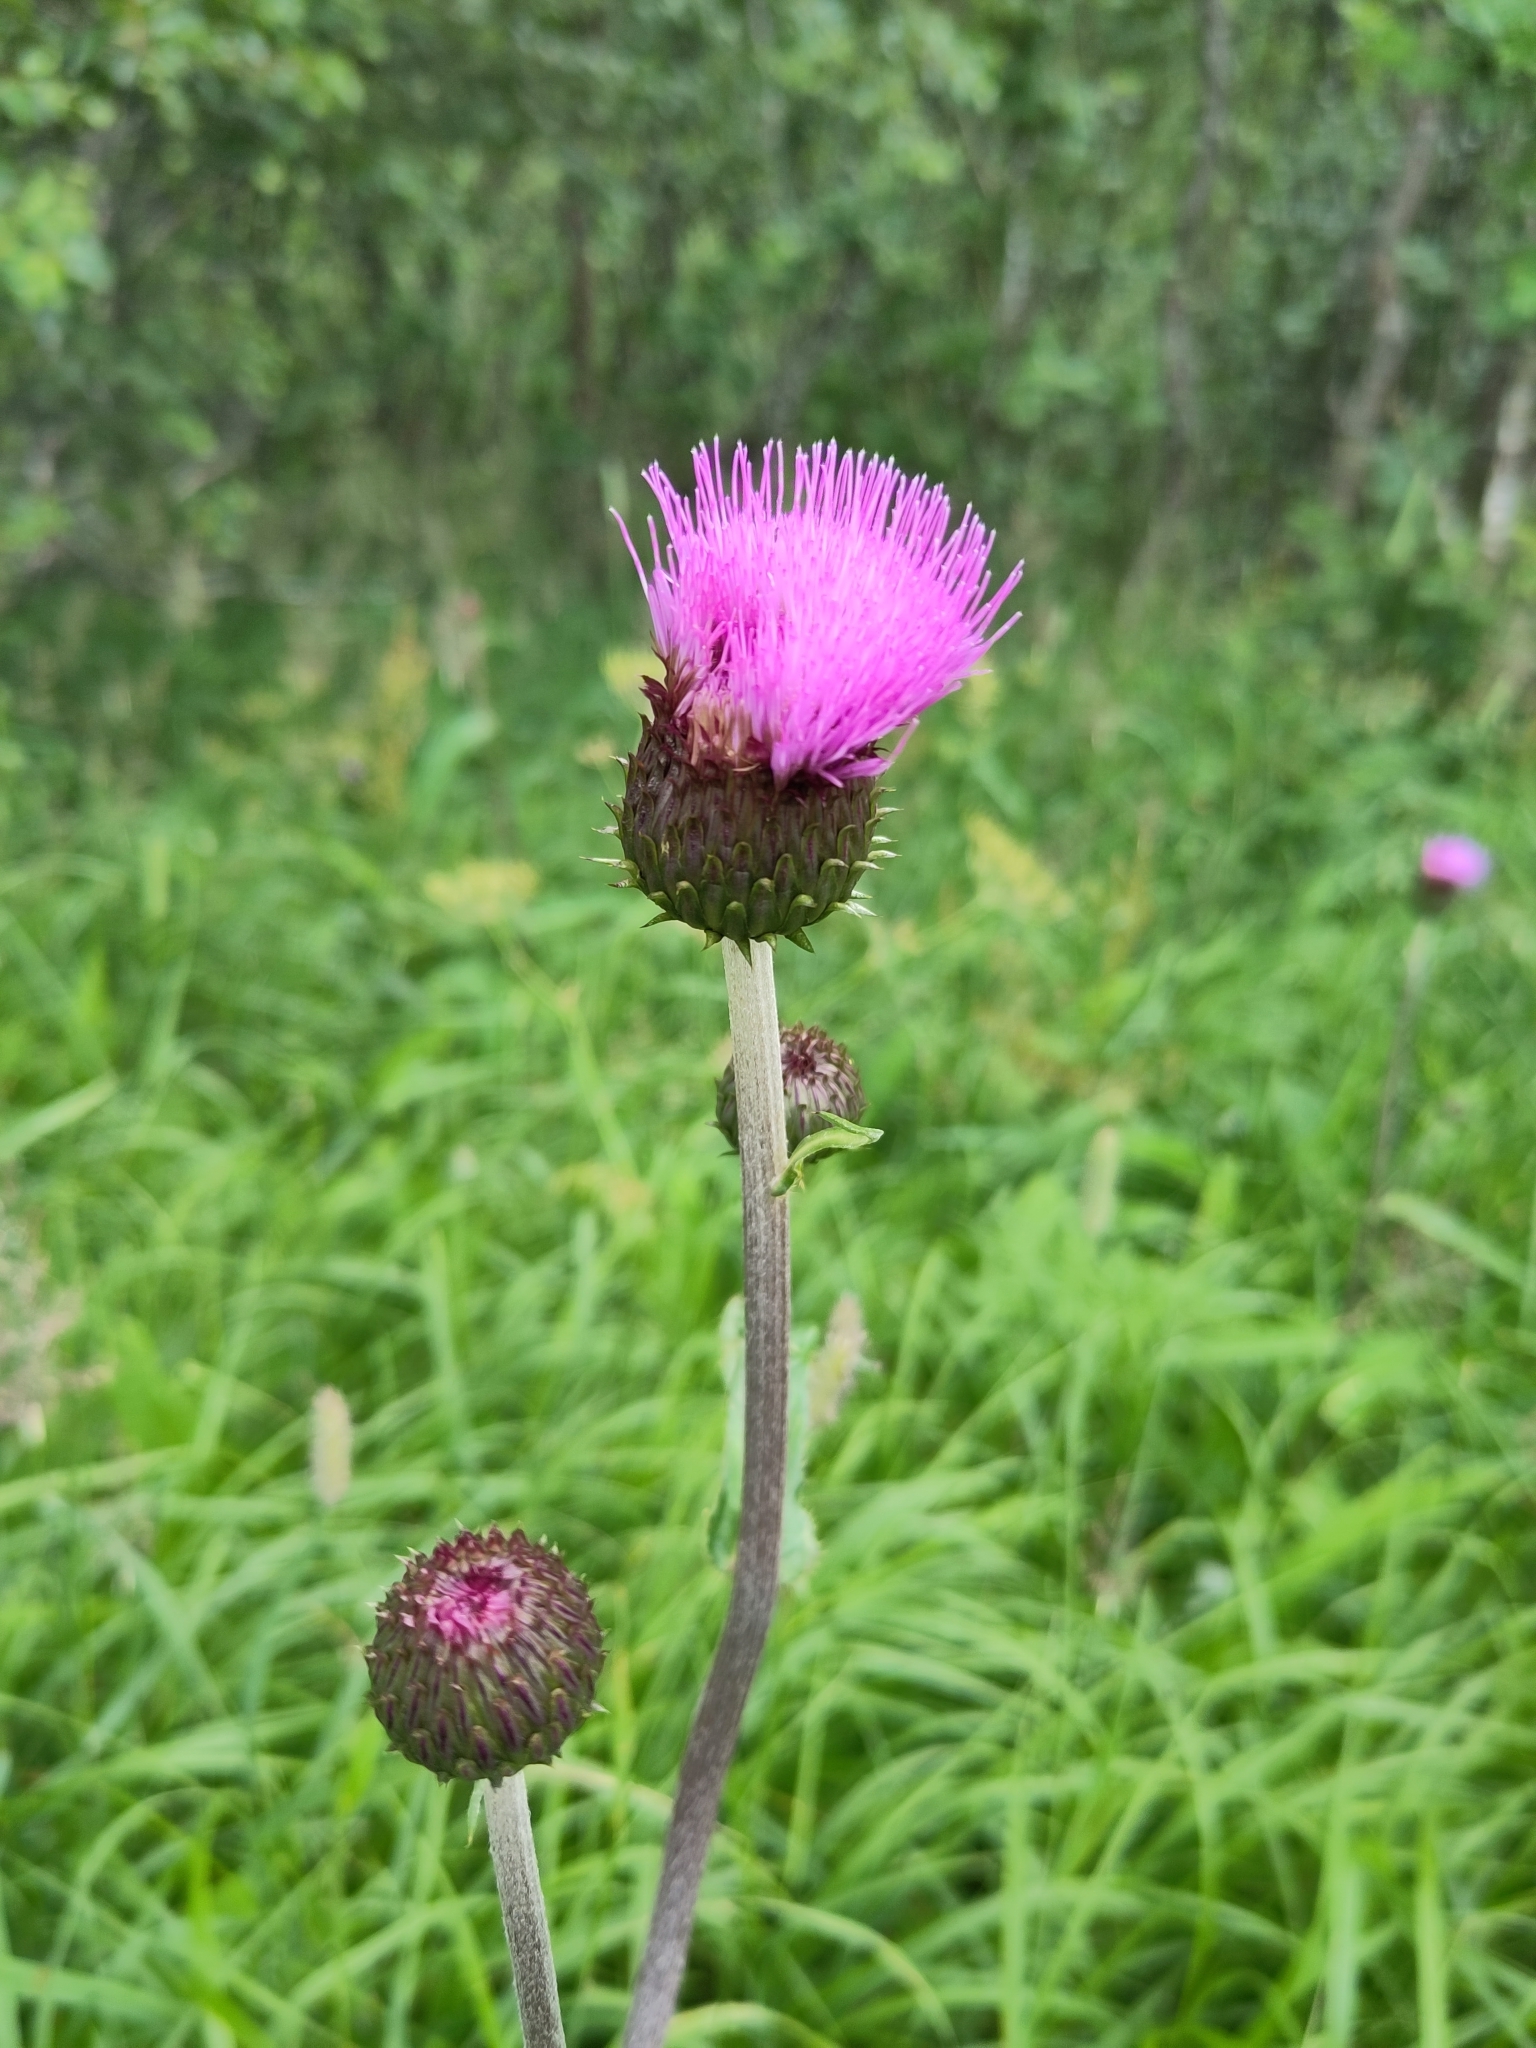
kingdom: Plantae
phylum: Tracheophyta
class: Magnoliopsida
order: Asterales
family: Asteraceae
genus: Cirsium
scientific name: Cirsium heterophyllum
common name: Melancholy thistle
